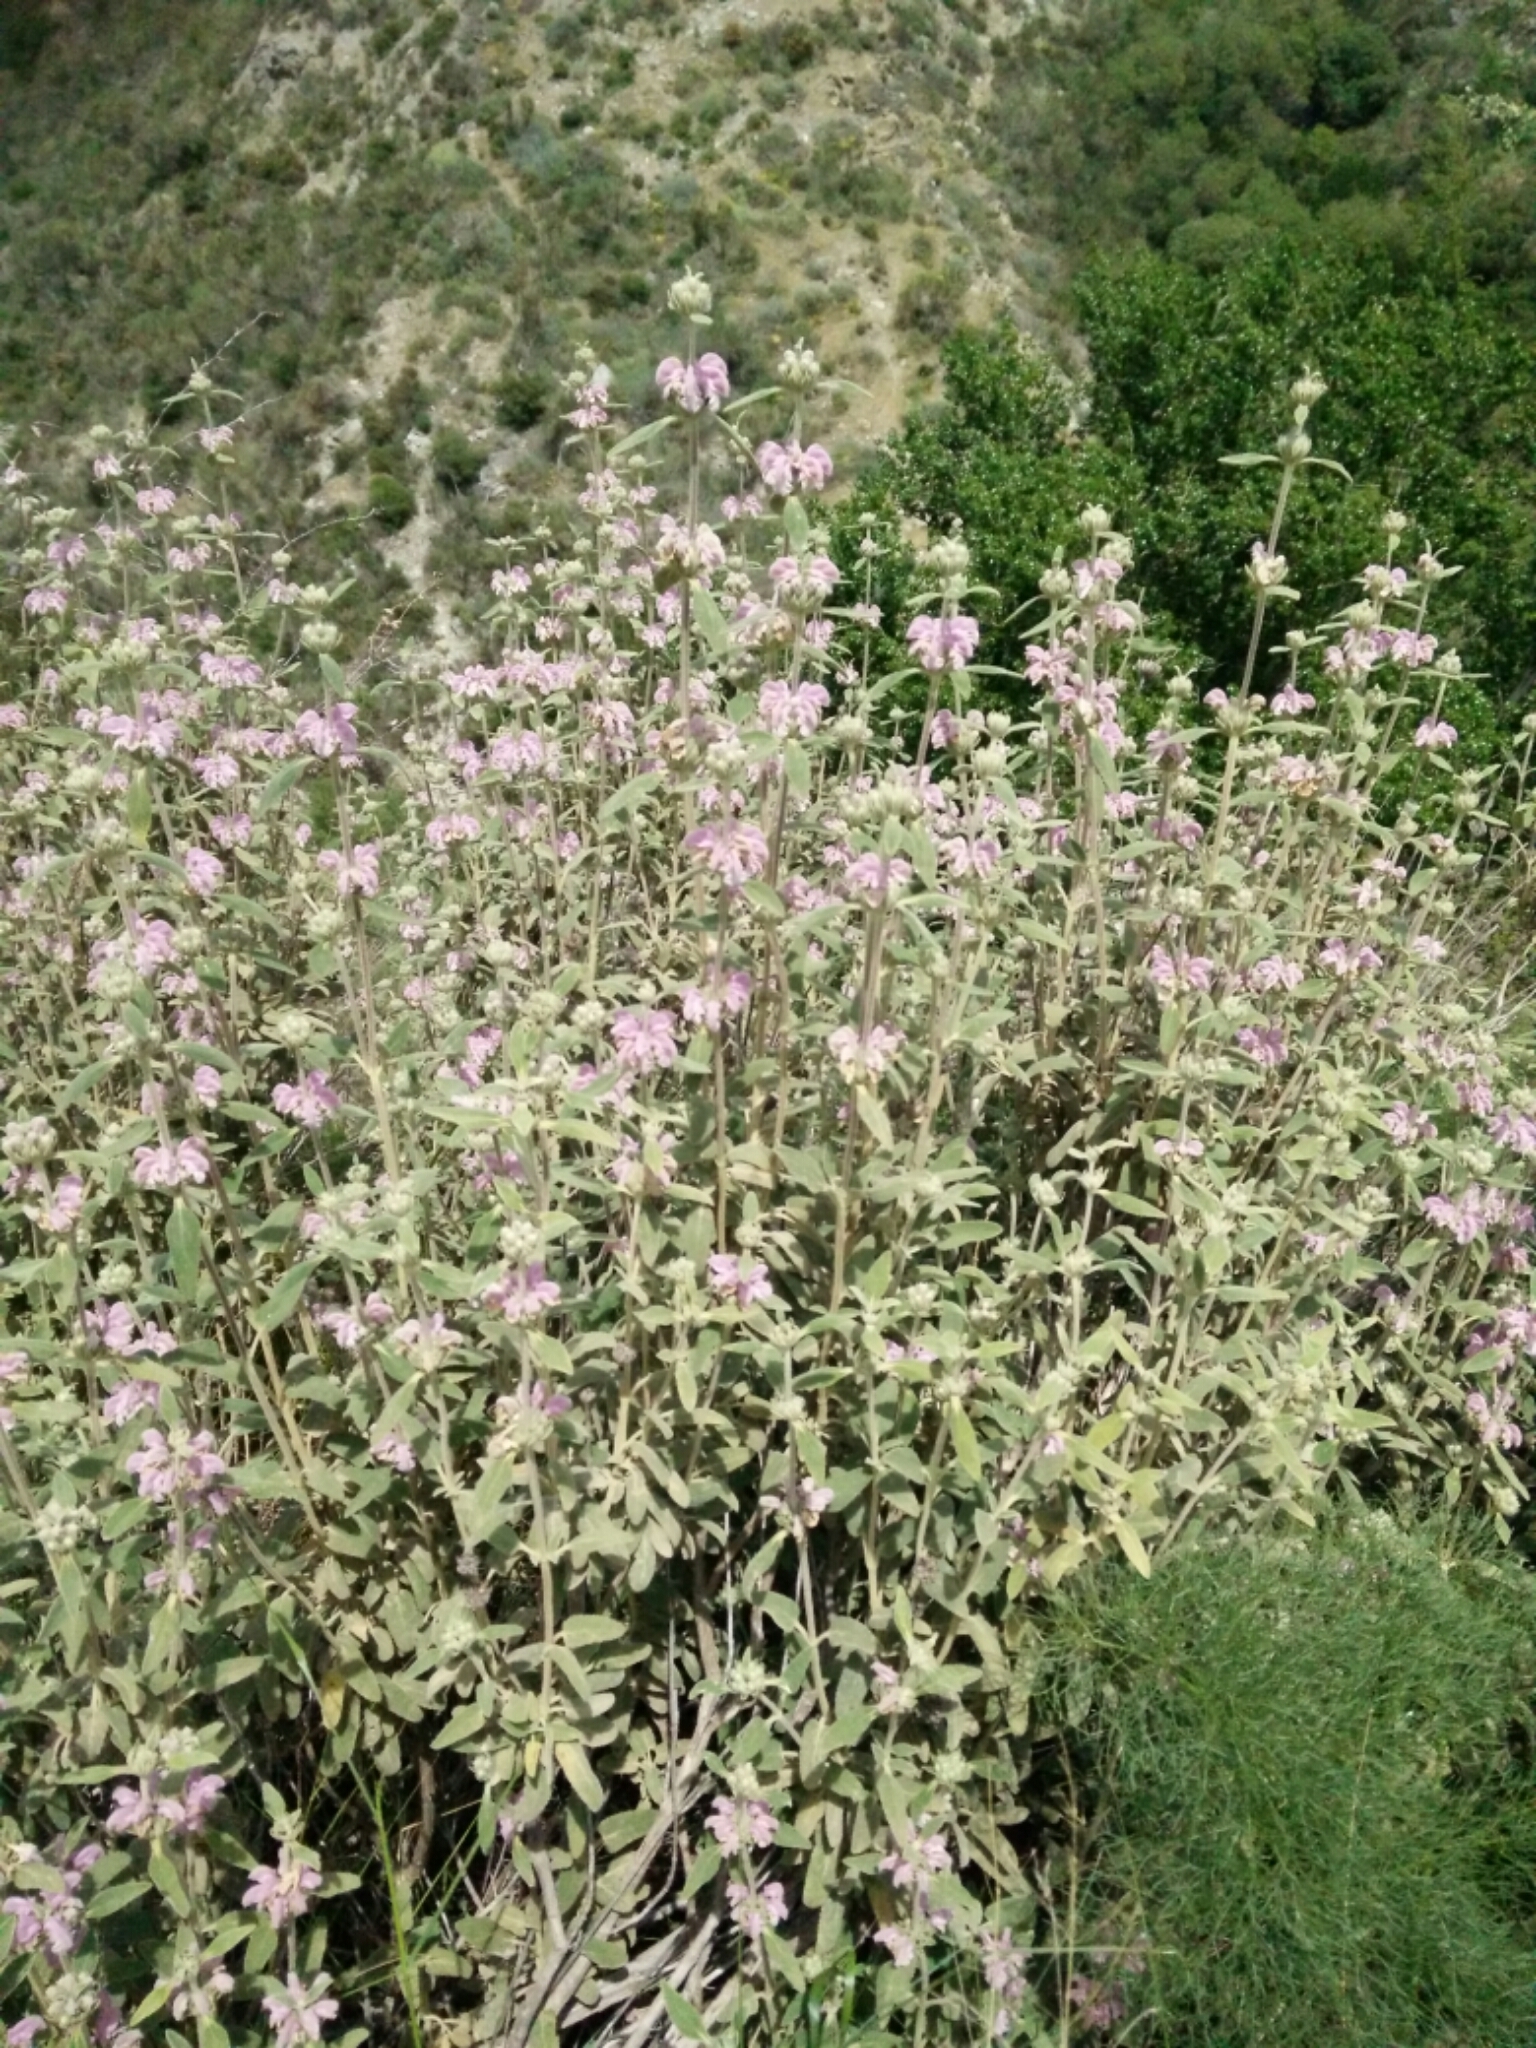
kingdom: Plantae
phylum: Tracheophyta
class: Magnoliopsida
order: Lamiales
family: Lamiaceae
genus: Phlomis
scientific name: Phlomis purpurea
